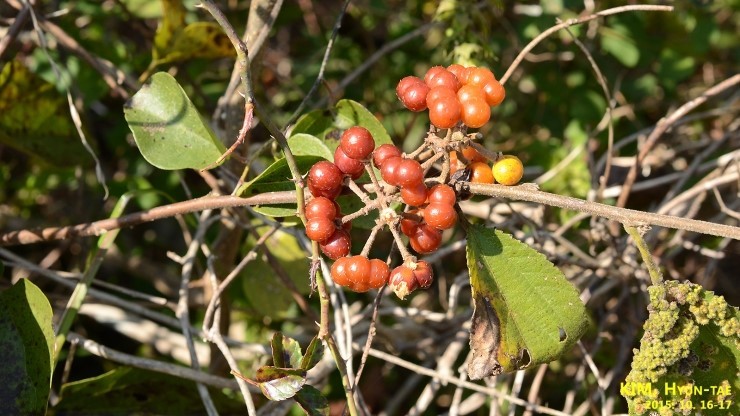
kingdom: Plantae
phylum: Tracheophyta
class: Magnoliopsida
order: Malvales
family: Malvaceae
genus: Grewia
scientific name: Grewia biloba
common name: Bilobed grewia
